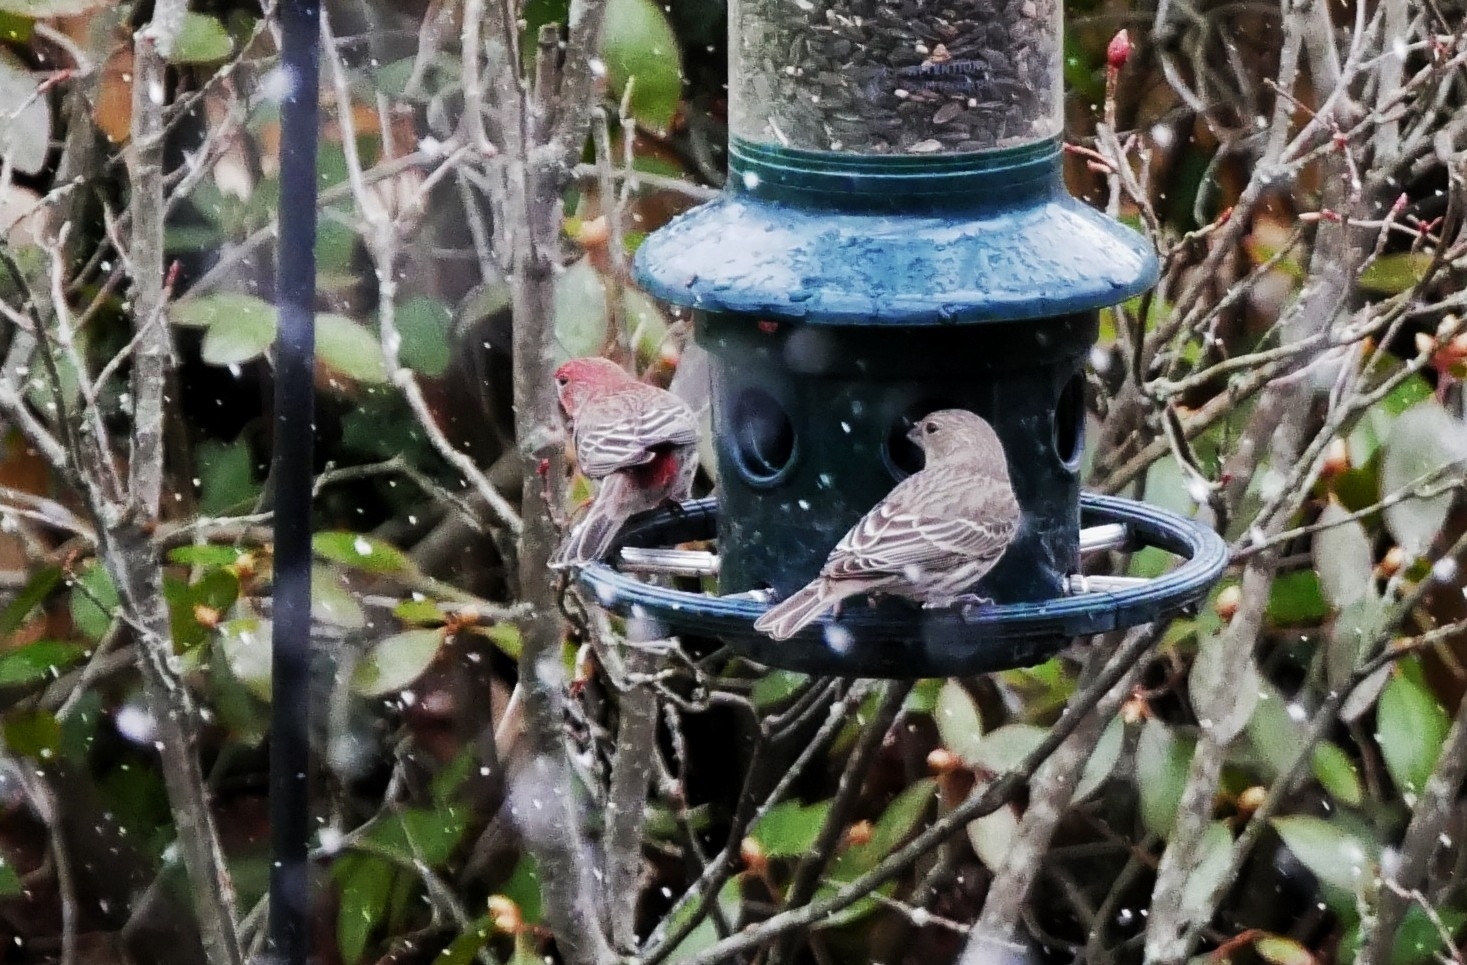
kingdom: Animalia
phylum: Chordata
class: Aves
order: Passeriformes
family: Fringillidae
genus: Haemorhous
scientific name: Haemorhous mexicanus
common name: House finch
